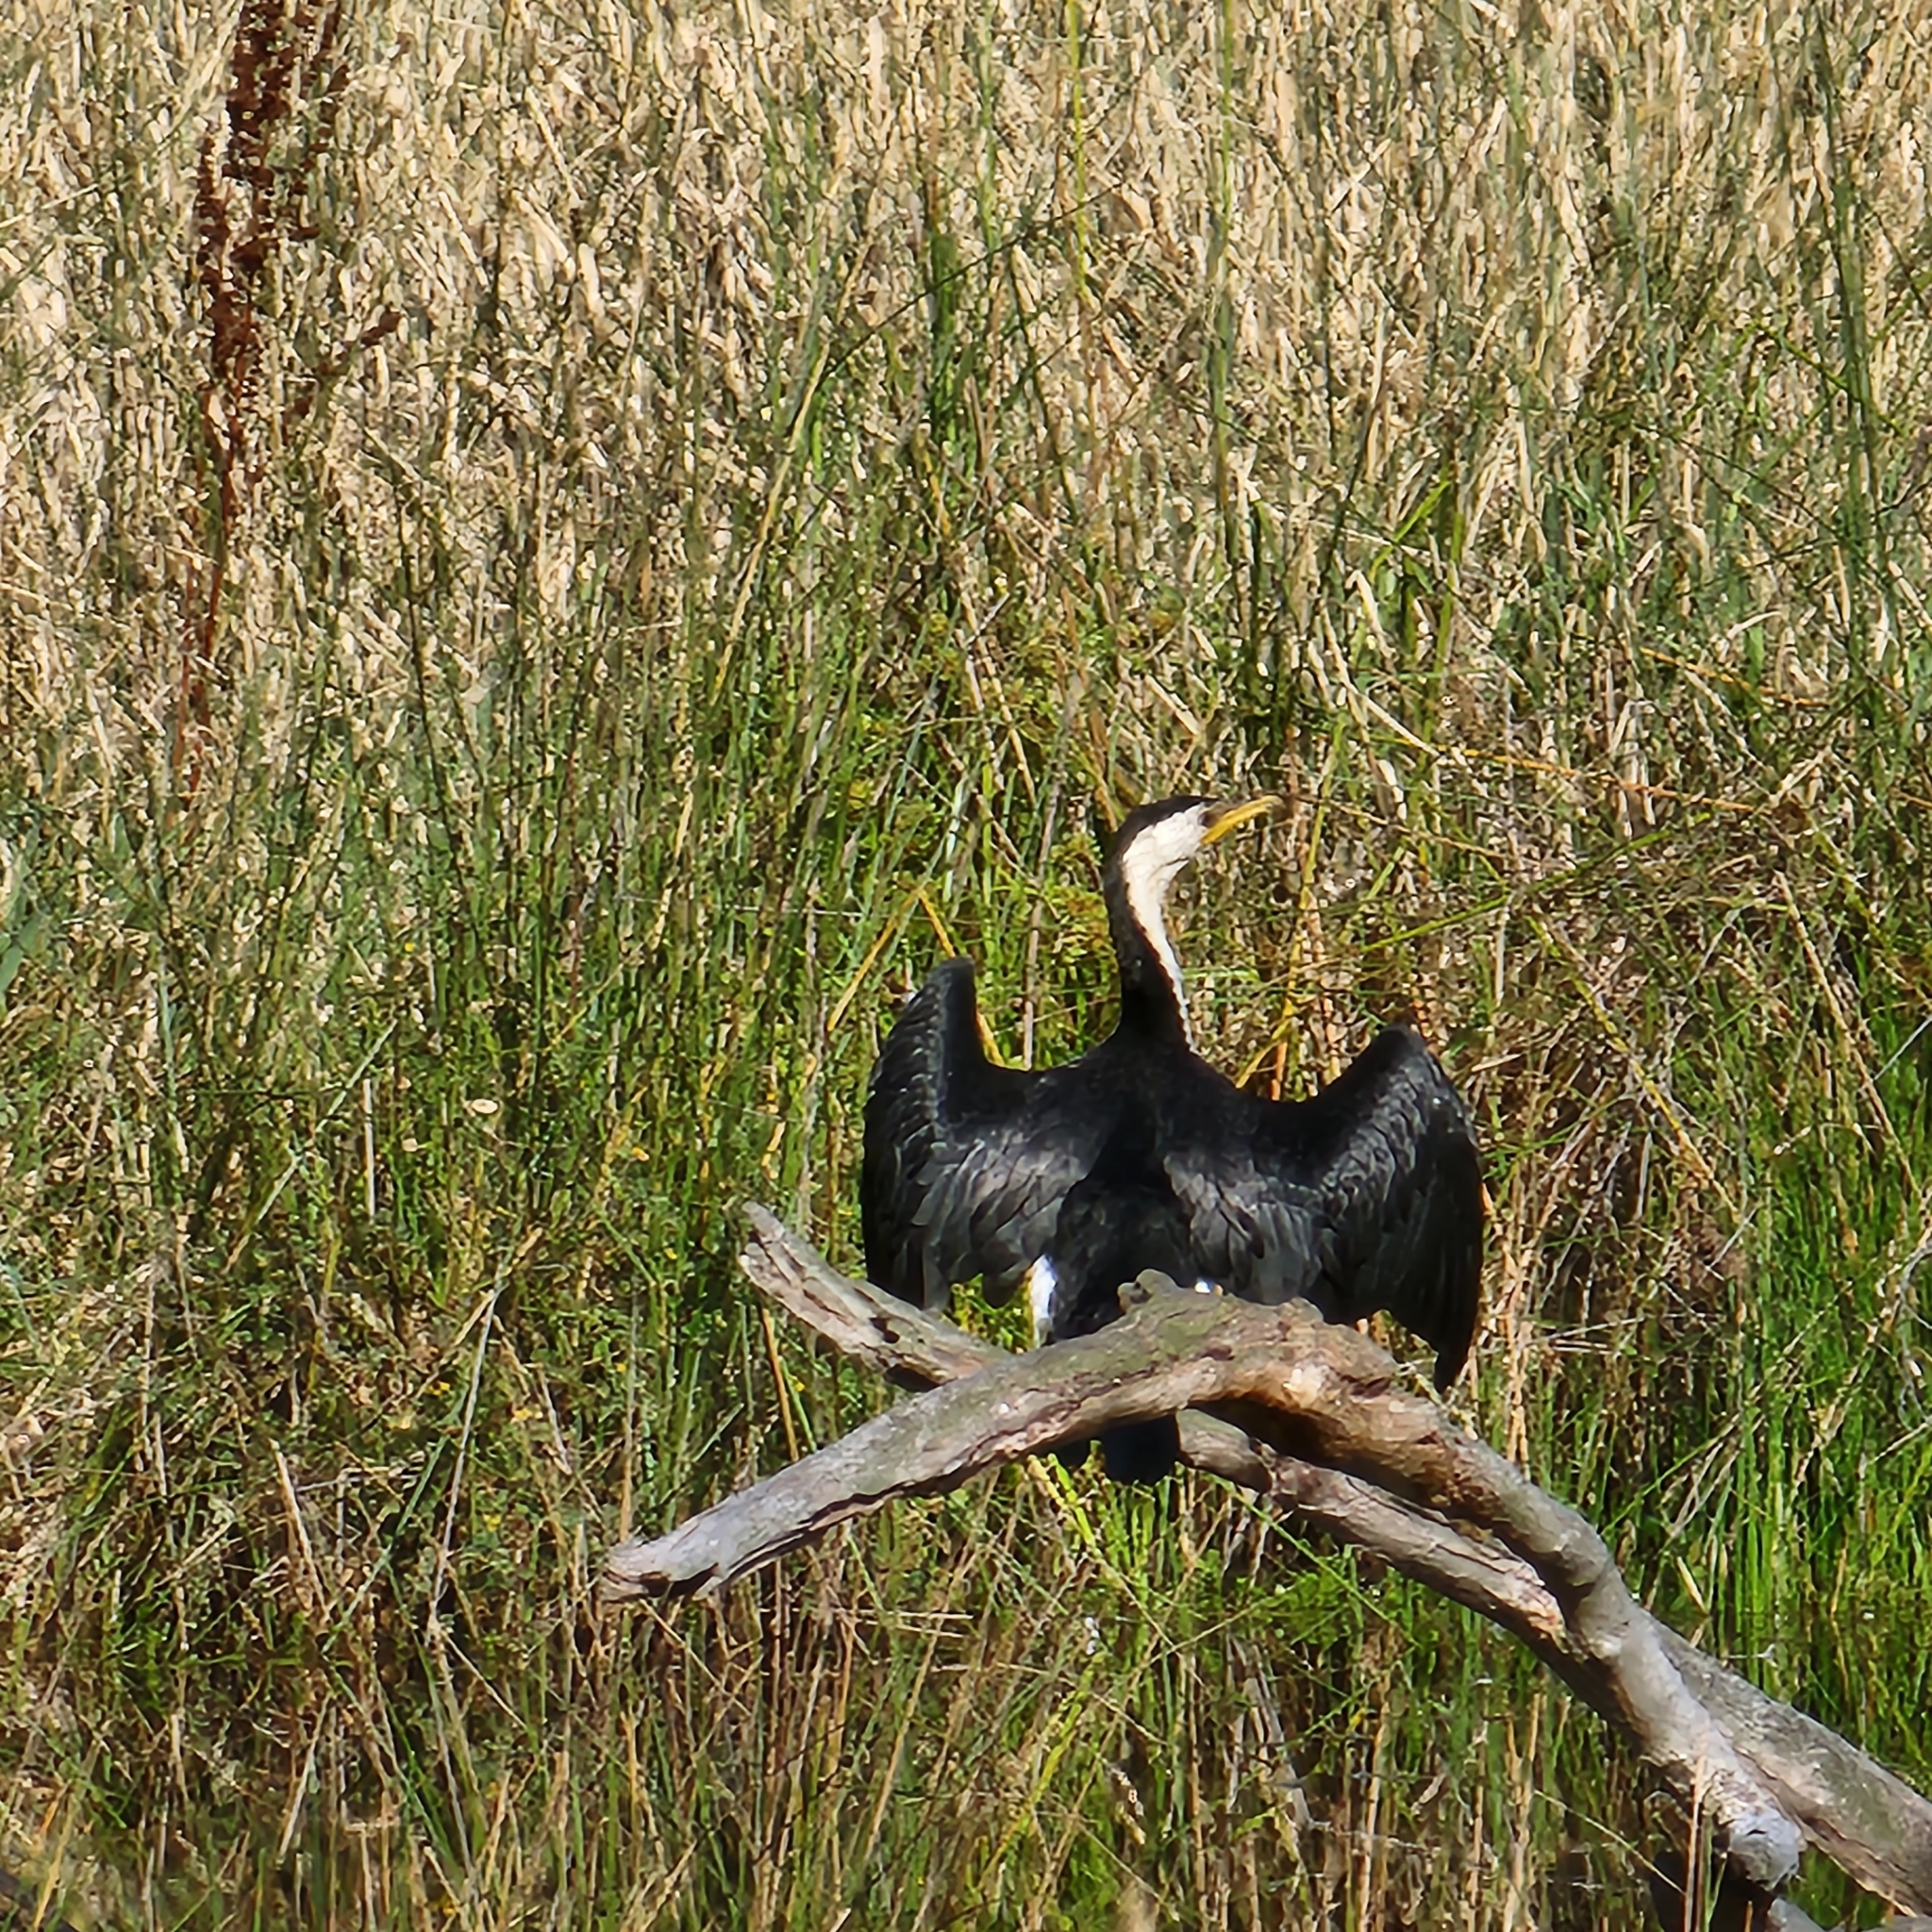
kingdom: Animalia
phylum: Chordata
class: Aves
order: Suliformes
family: Phalacrocoracidae
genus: Microcarbo
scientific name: Microcarbo melanoleucos
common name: Little pied cormorant
